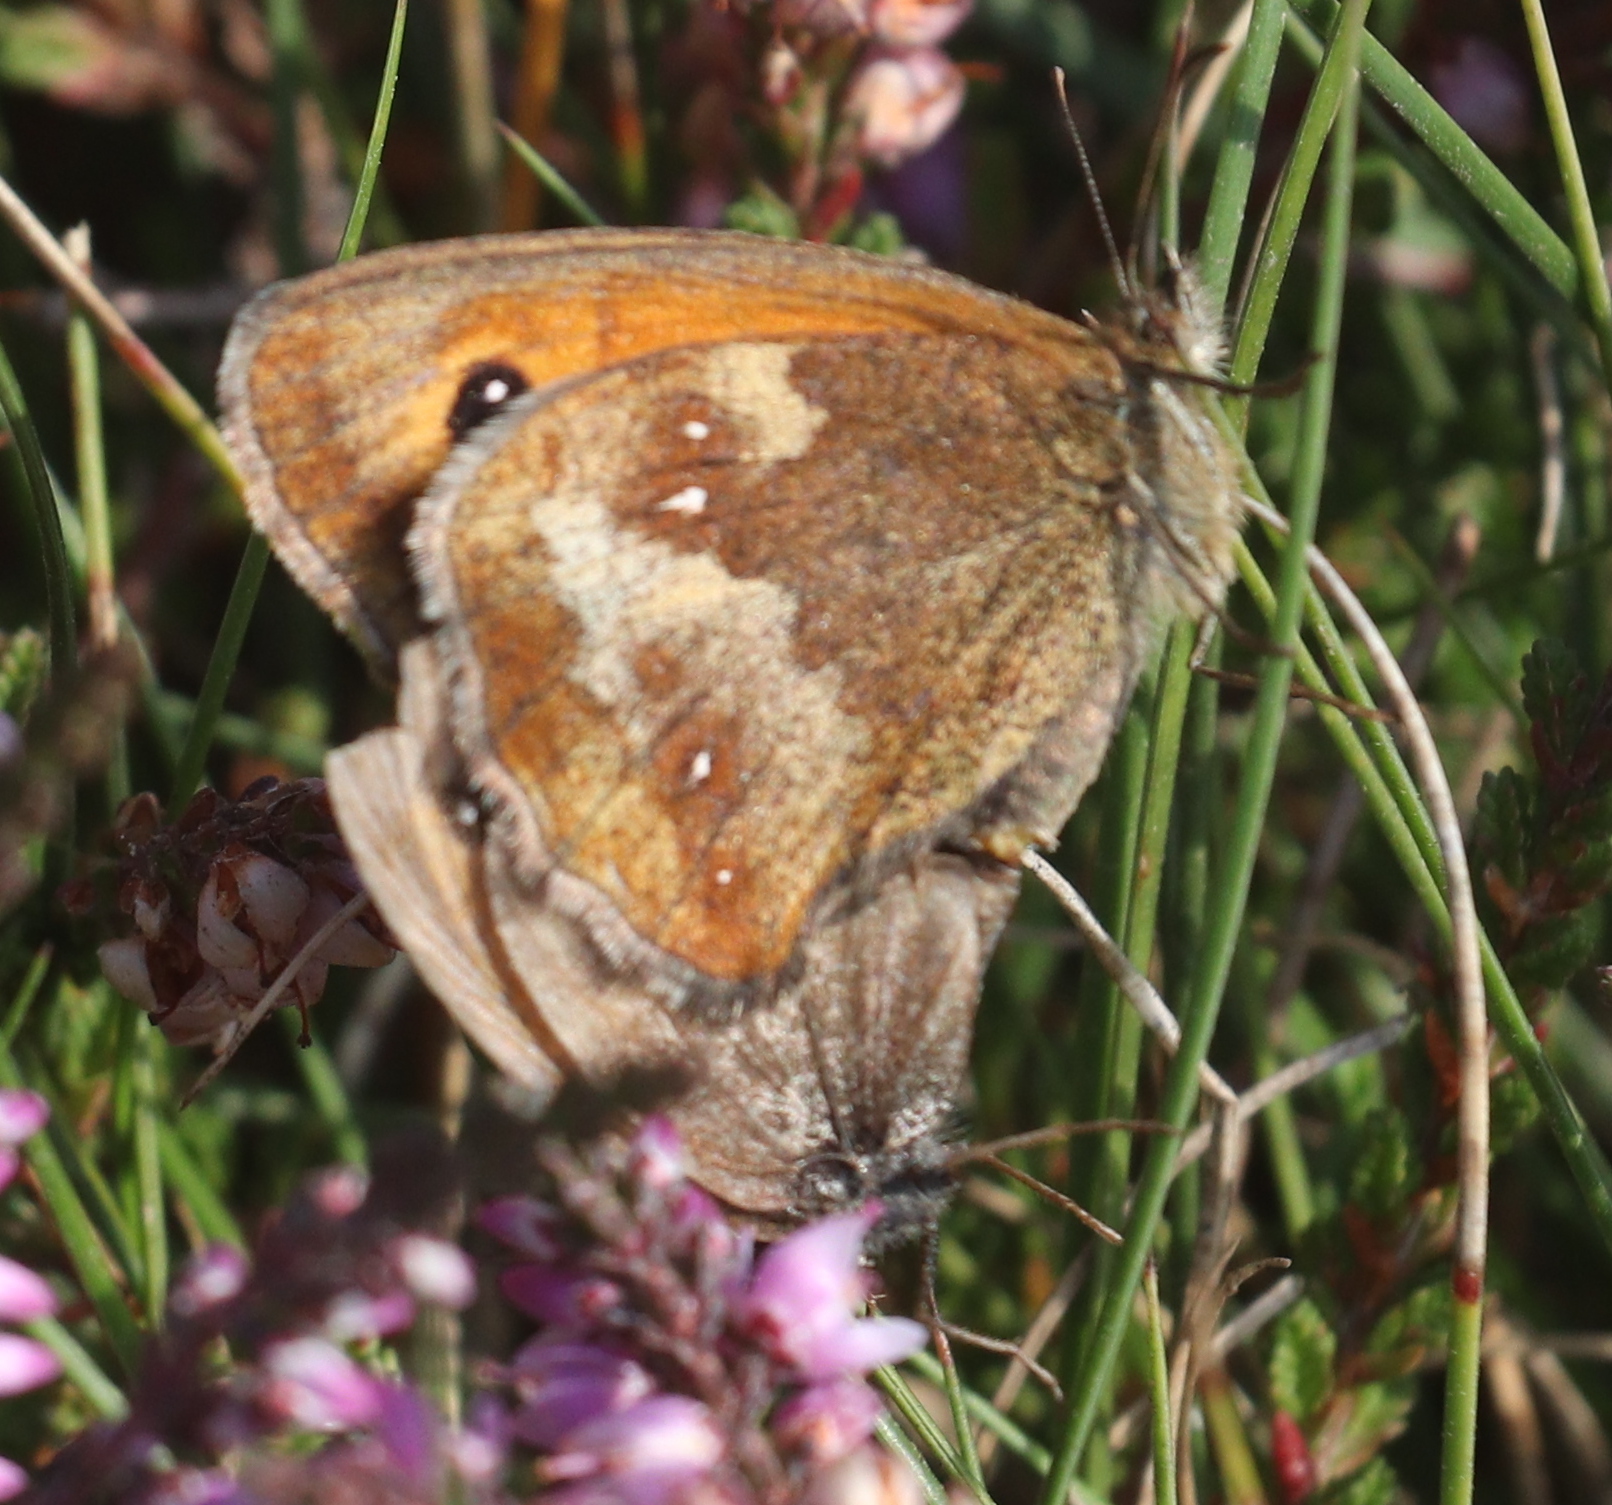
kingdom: Animalia
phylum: Arthropoda
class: Insecta
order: Lepidoptera
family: Nymphalidae
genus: Pyronia
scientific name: Pyronia tithonus
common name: Gatekeeper
